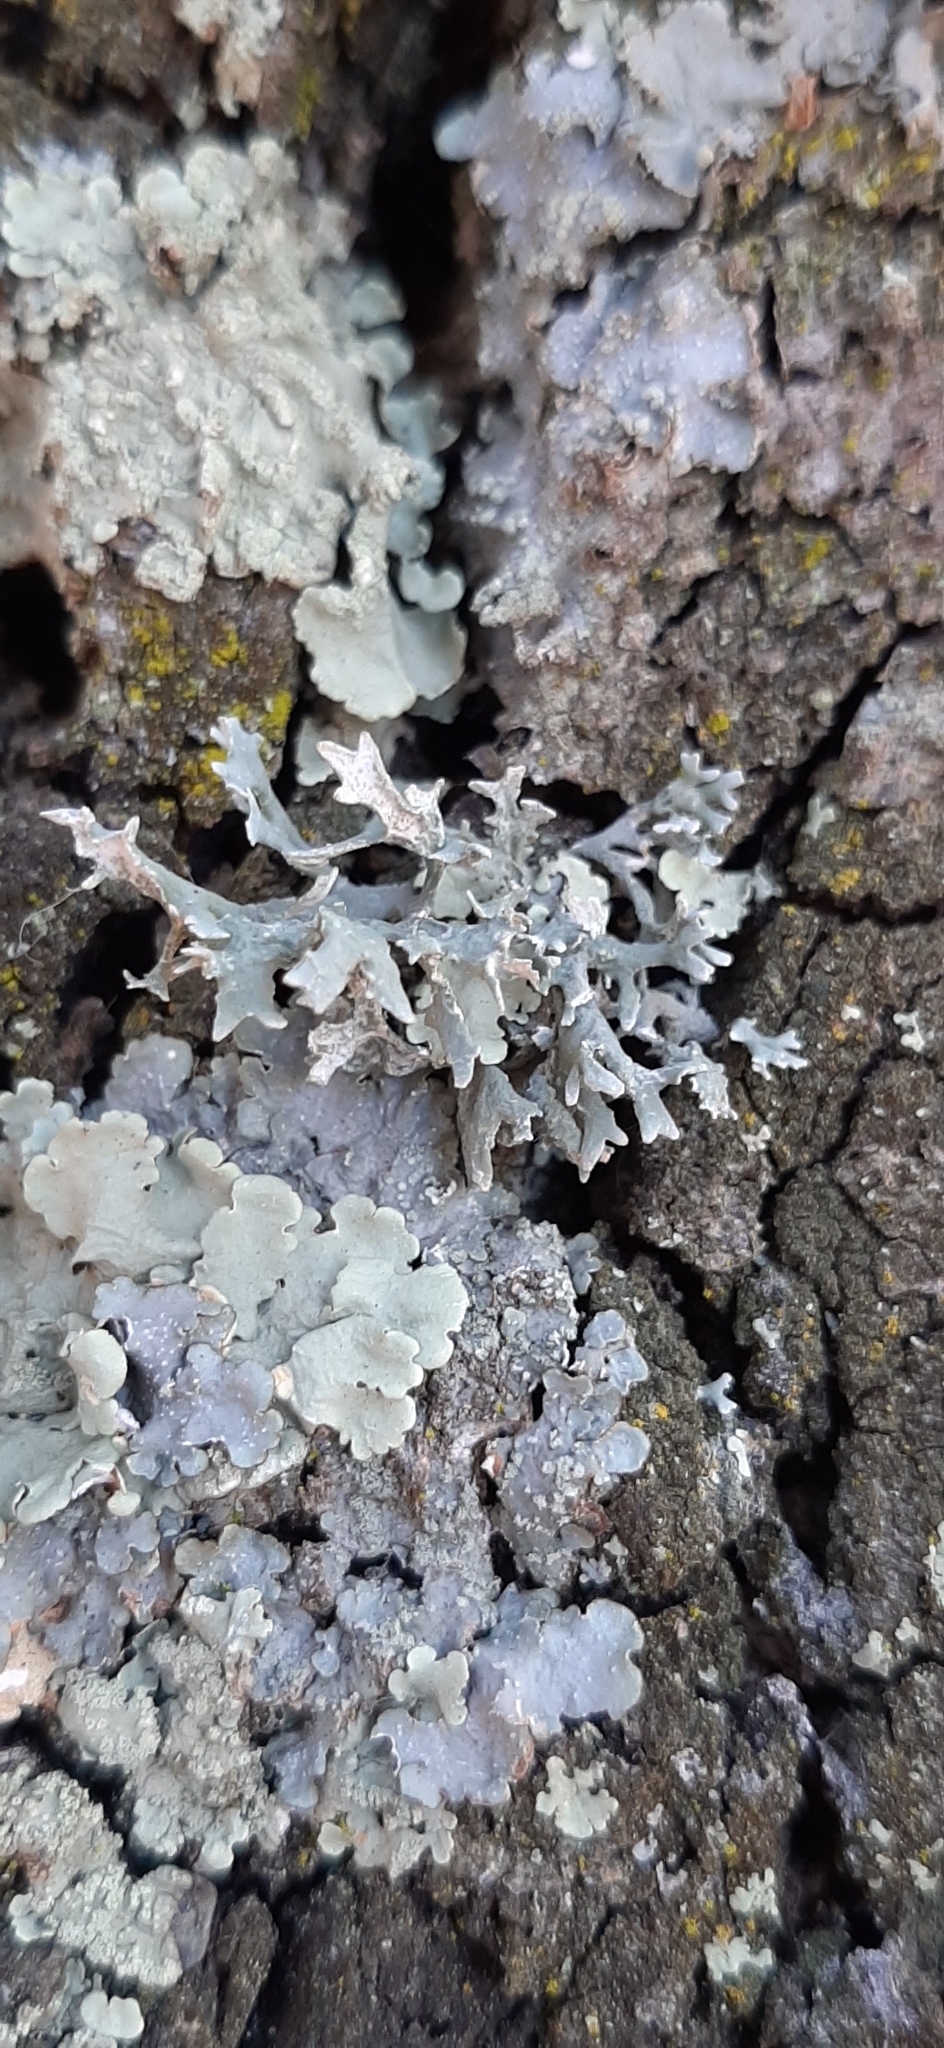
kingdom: Fungi
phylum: Ascomycota
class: Lecanoromycetes
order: Lecanorales
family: Parmeliaceae
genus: Evernia
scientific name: Evernia prunastri
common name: Oak moss
